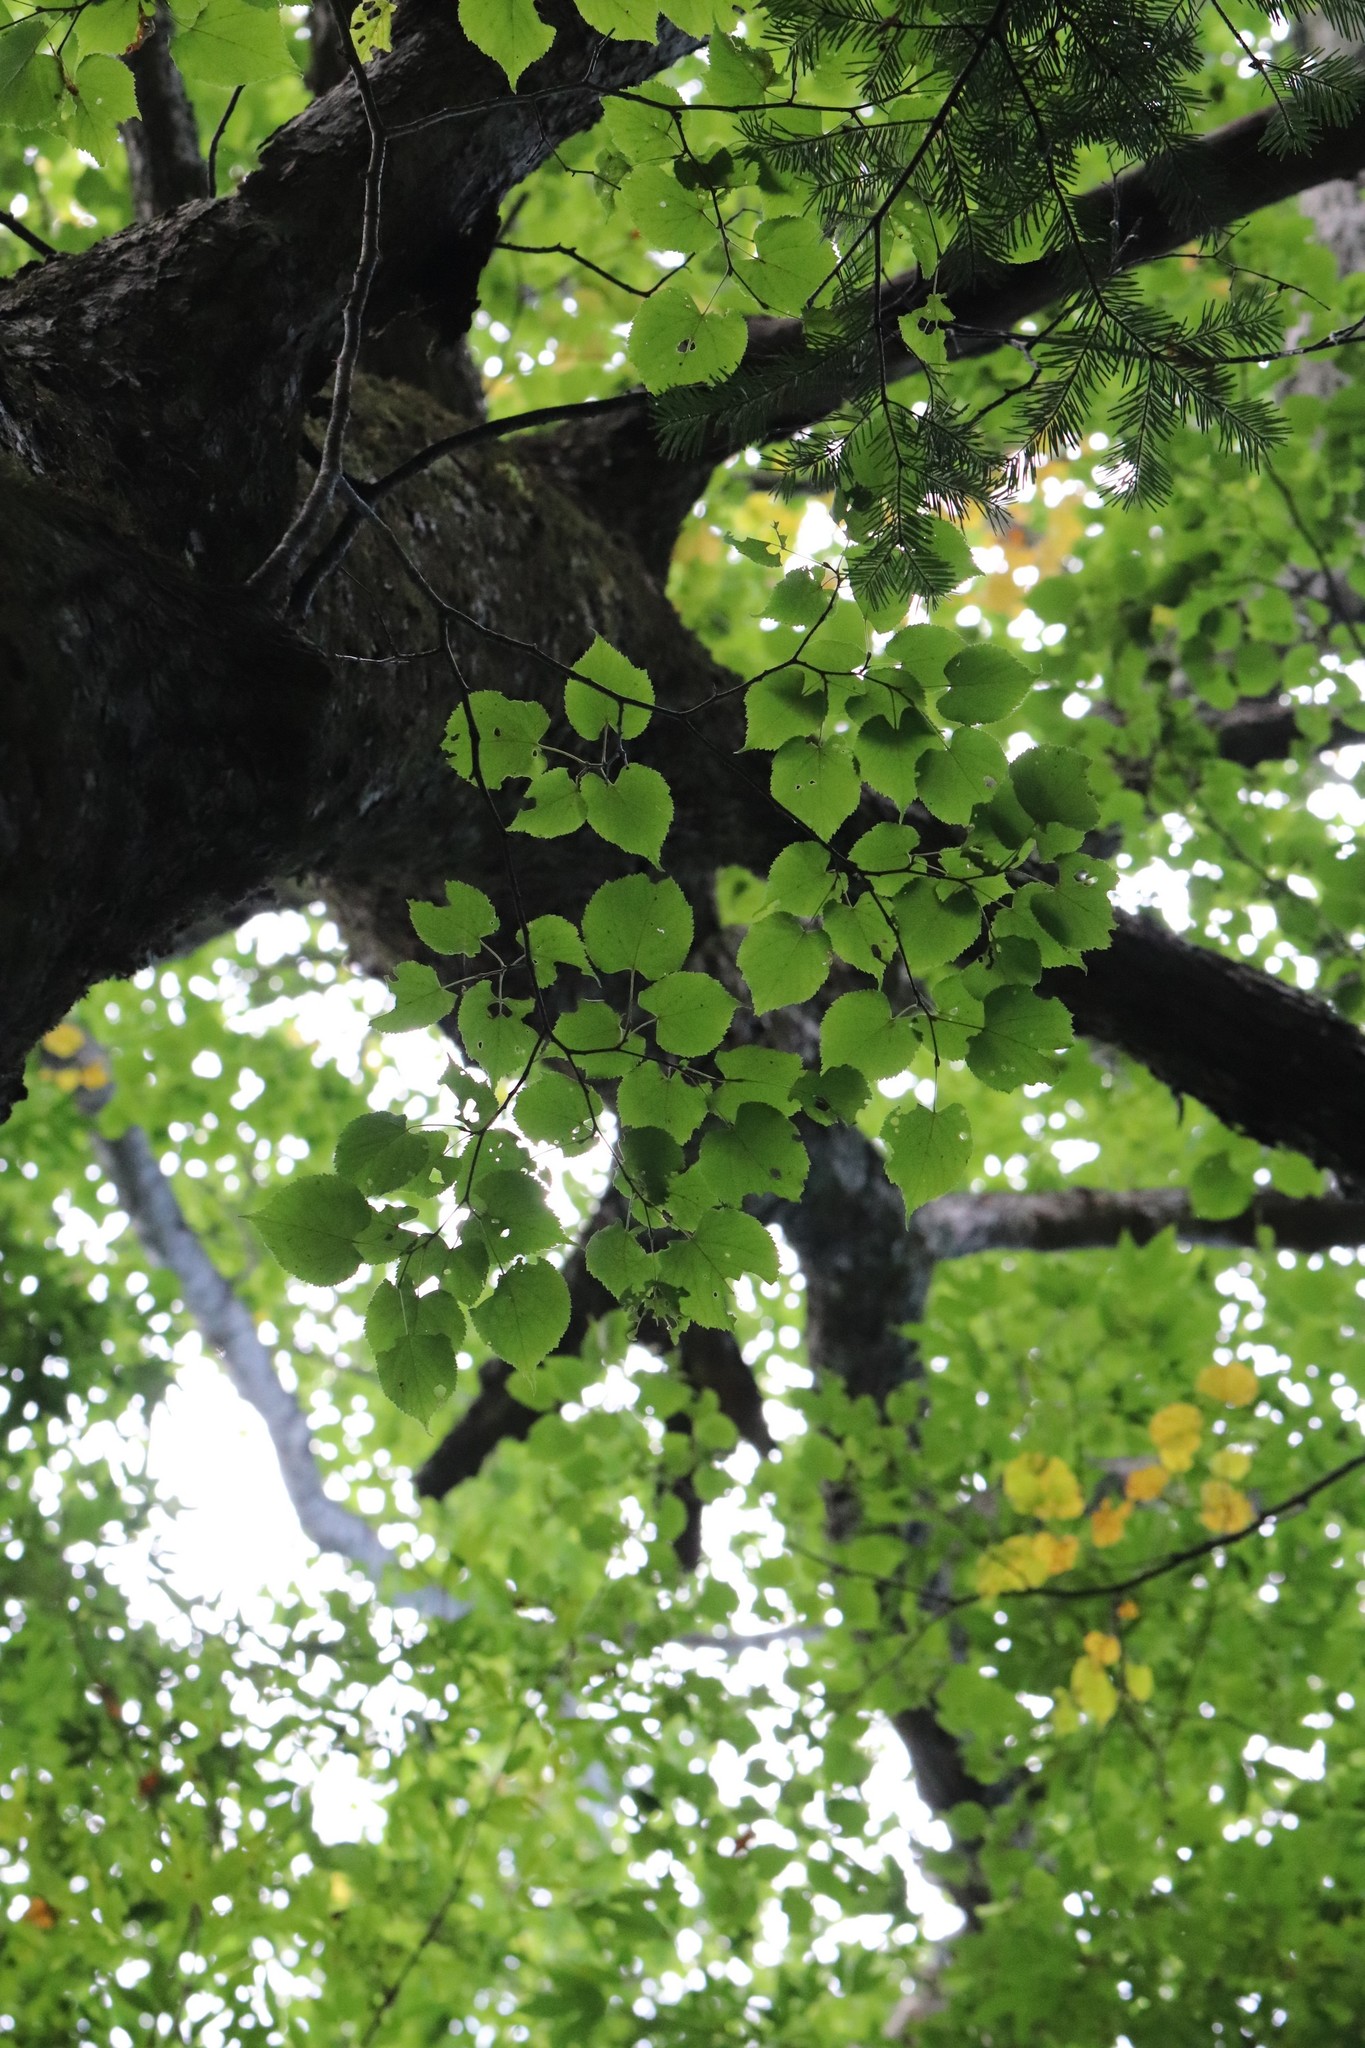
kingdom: Plantae
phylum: Tracheophyta
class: Magnoliopsida
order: Malvales
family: Malvaceae
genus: Tilia
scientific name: Tilia amurensis
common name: Amur lime
